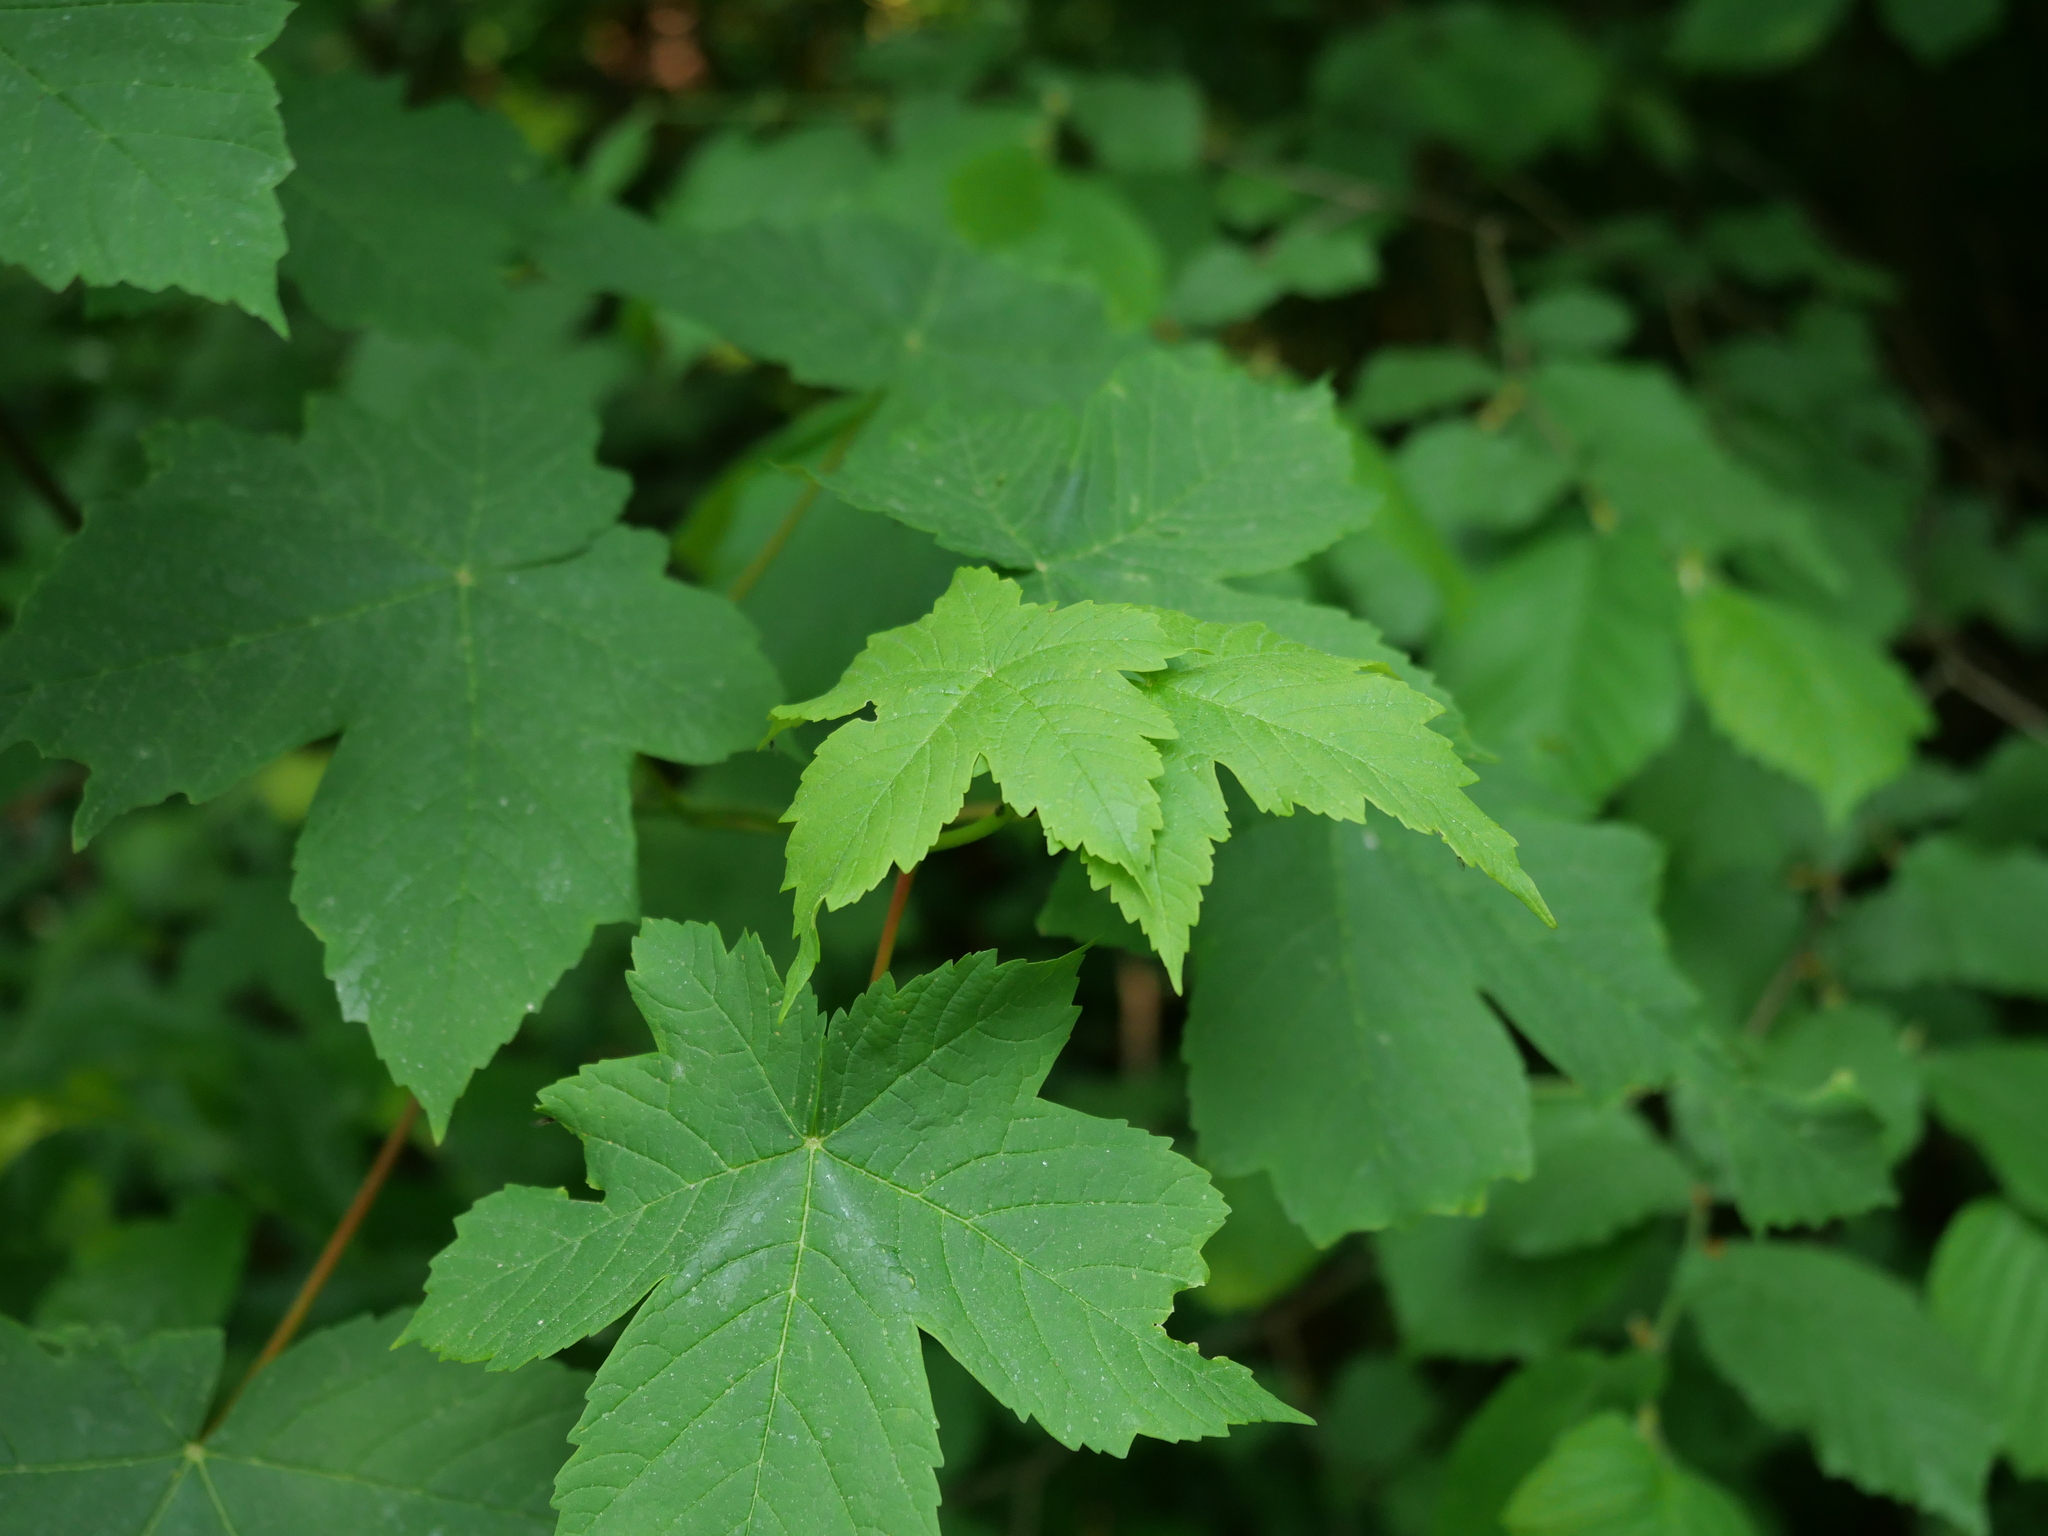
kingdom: Plantae
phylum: Tracheophyta
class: Magnoliopsida
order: Sapindales
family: Sapindaceae
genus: Acer
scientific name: Acer pseudoplatanus
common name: Sycamore
